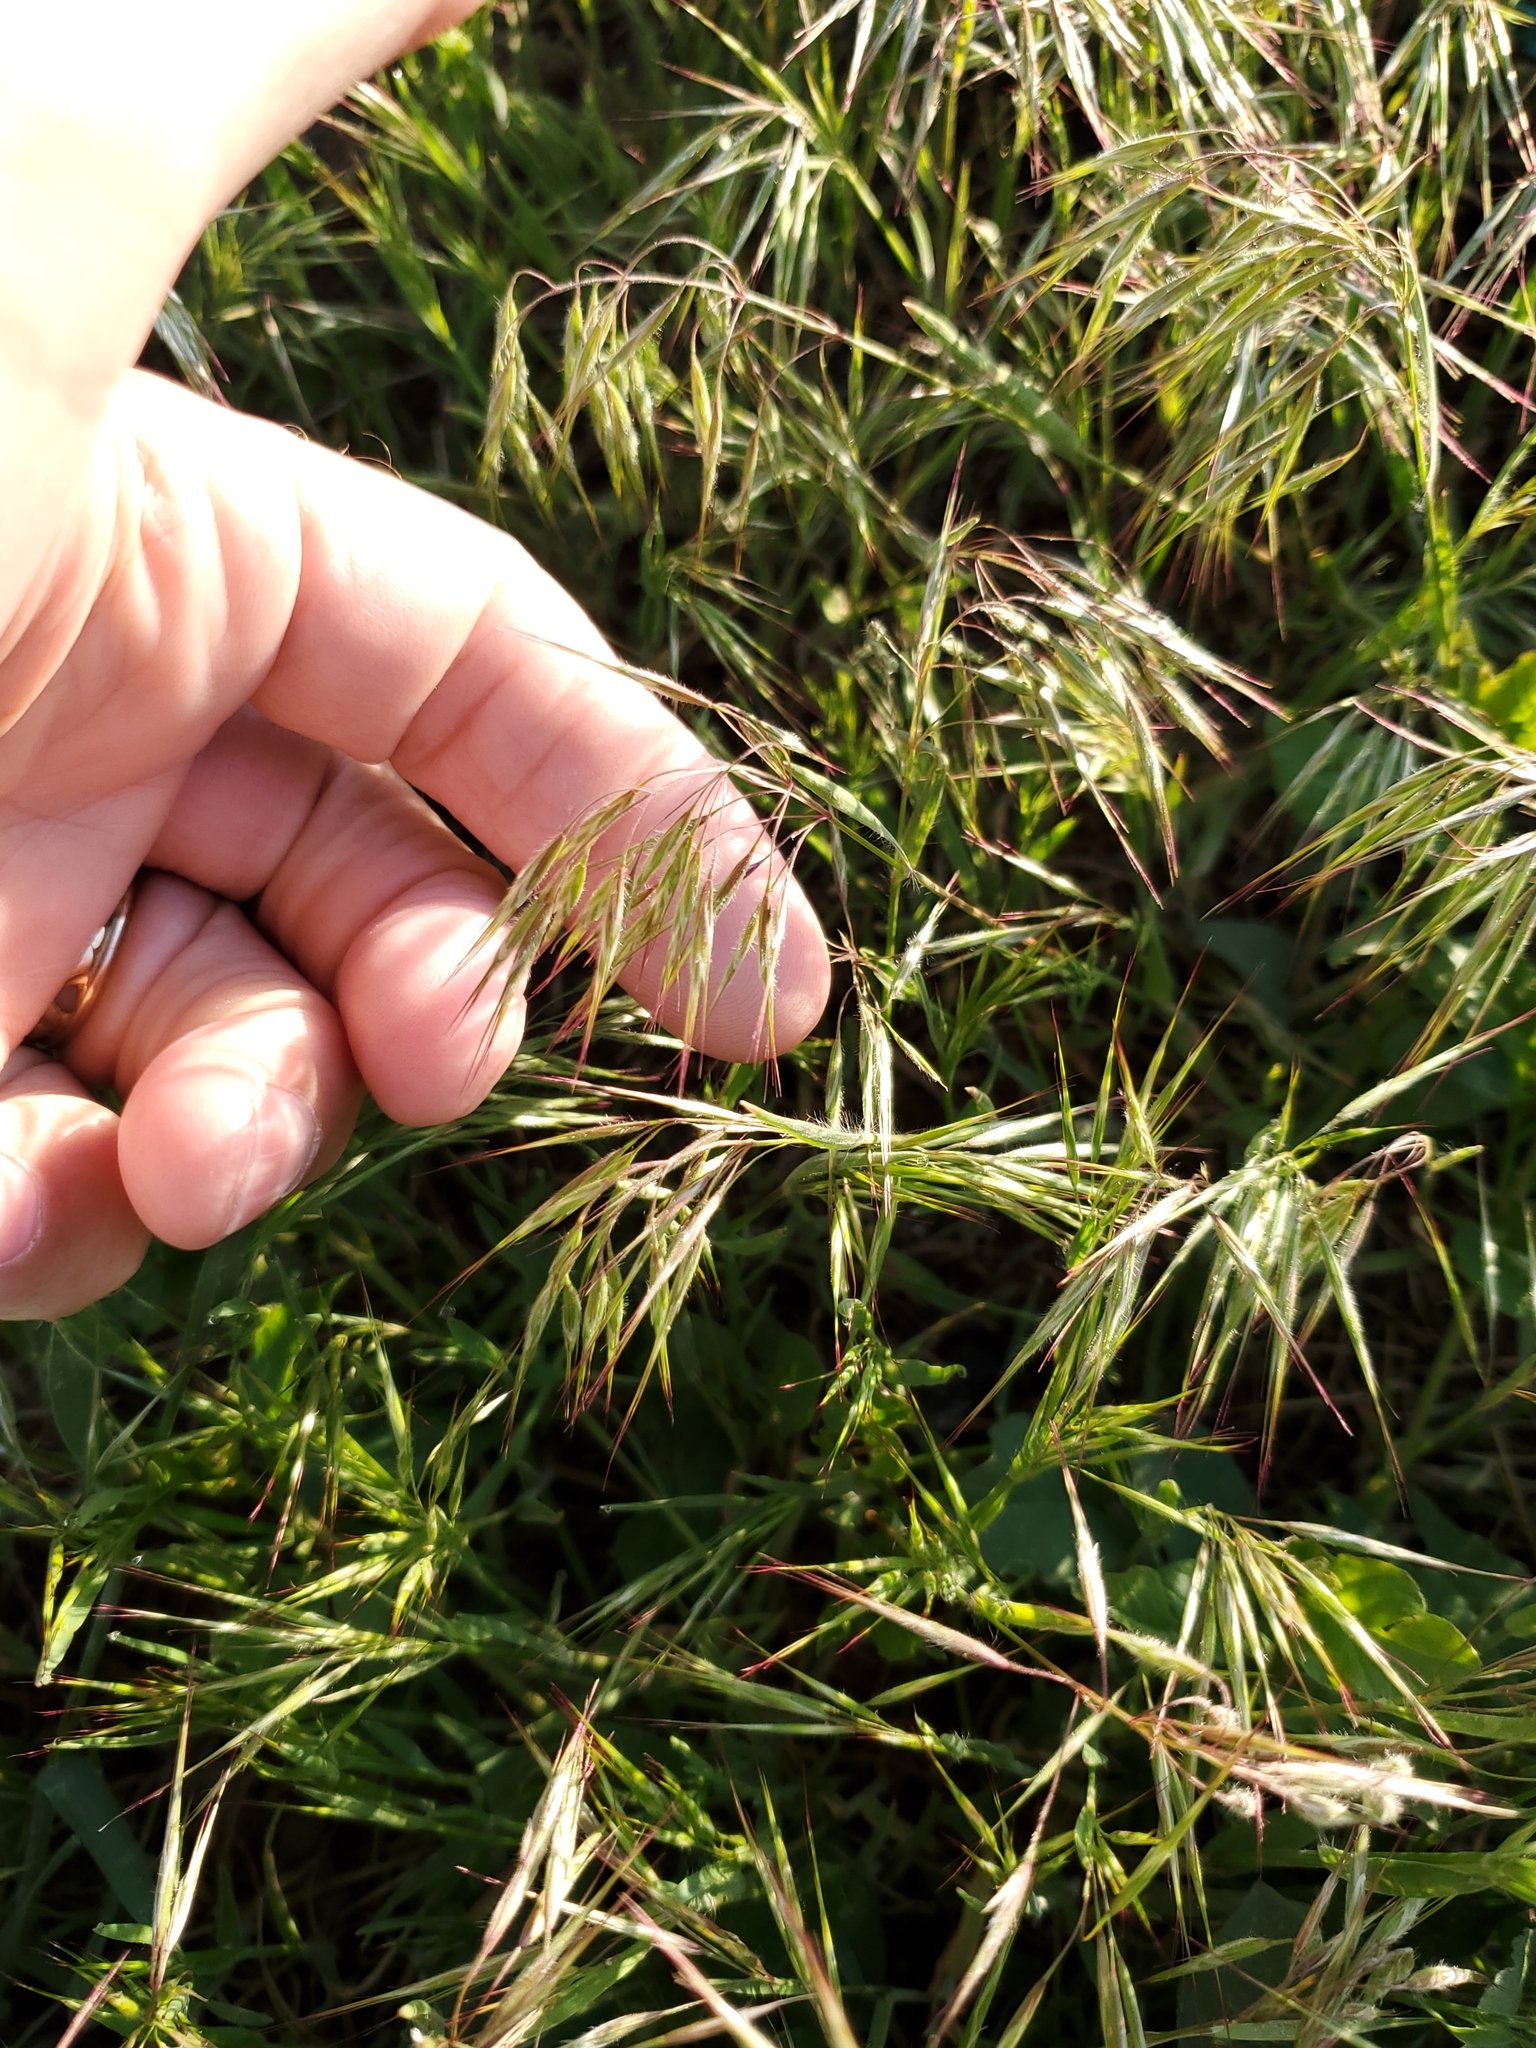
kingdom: Plantae
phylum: Tracheophyta
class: Liliopsida
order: Poales
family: Poaceae
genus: Bromus
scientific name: Bromus tectorum
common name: Cheatgrass
